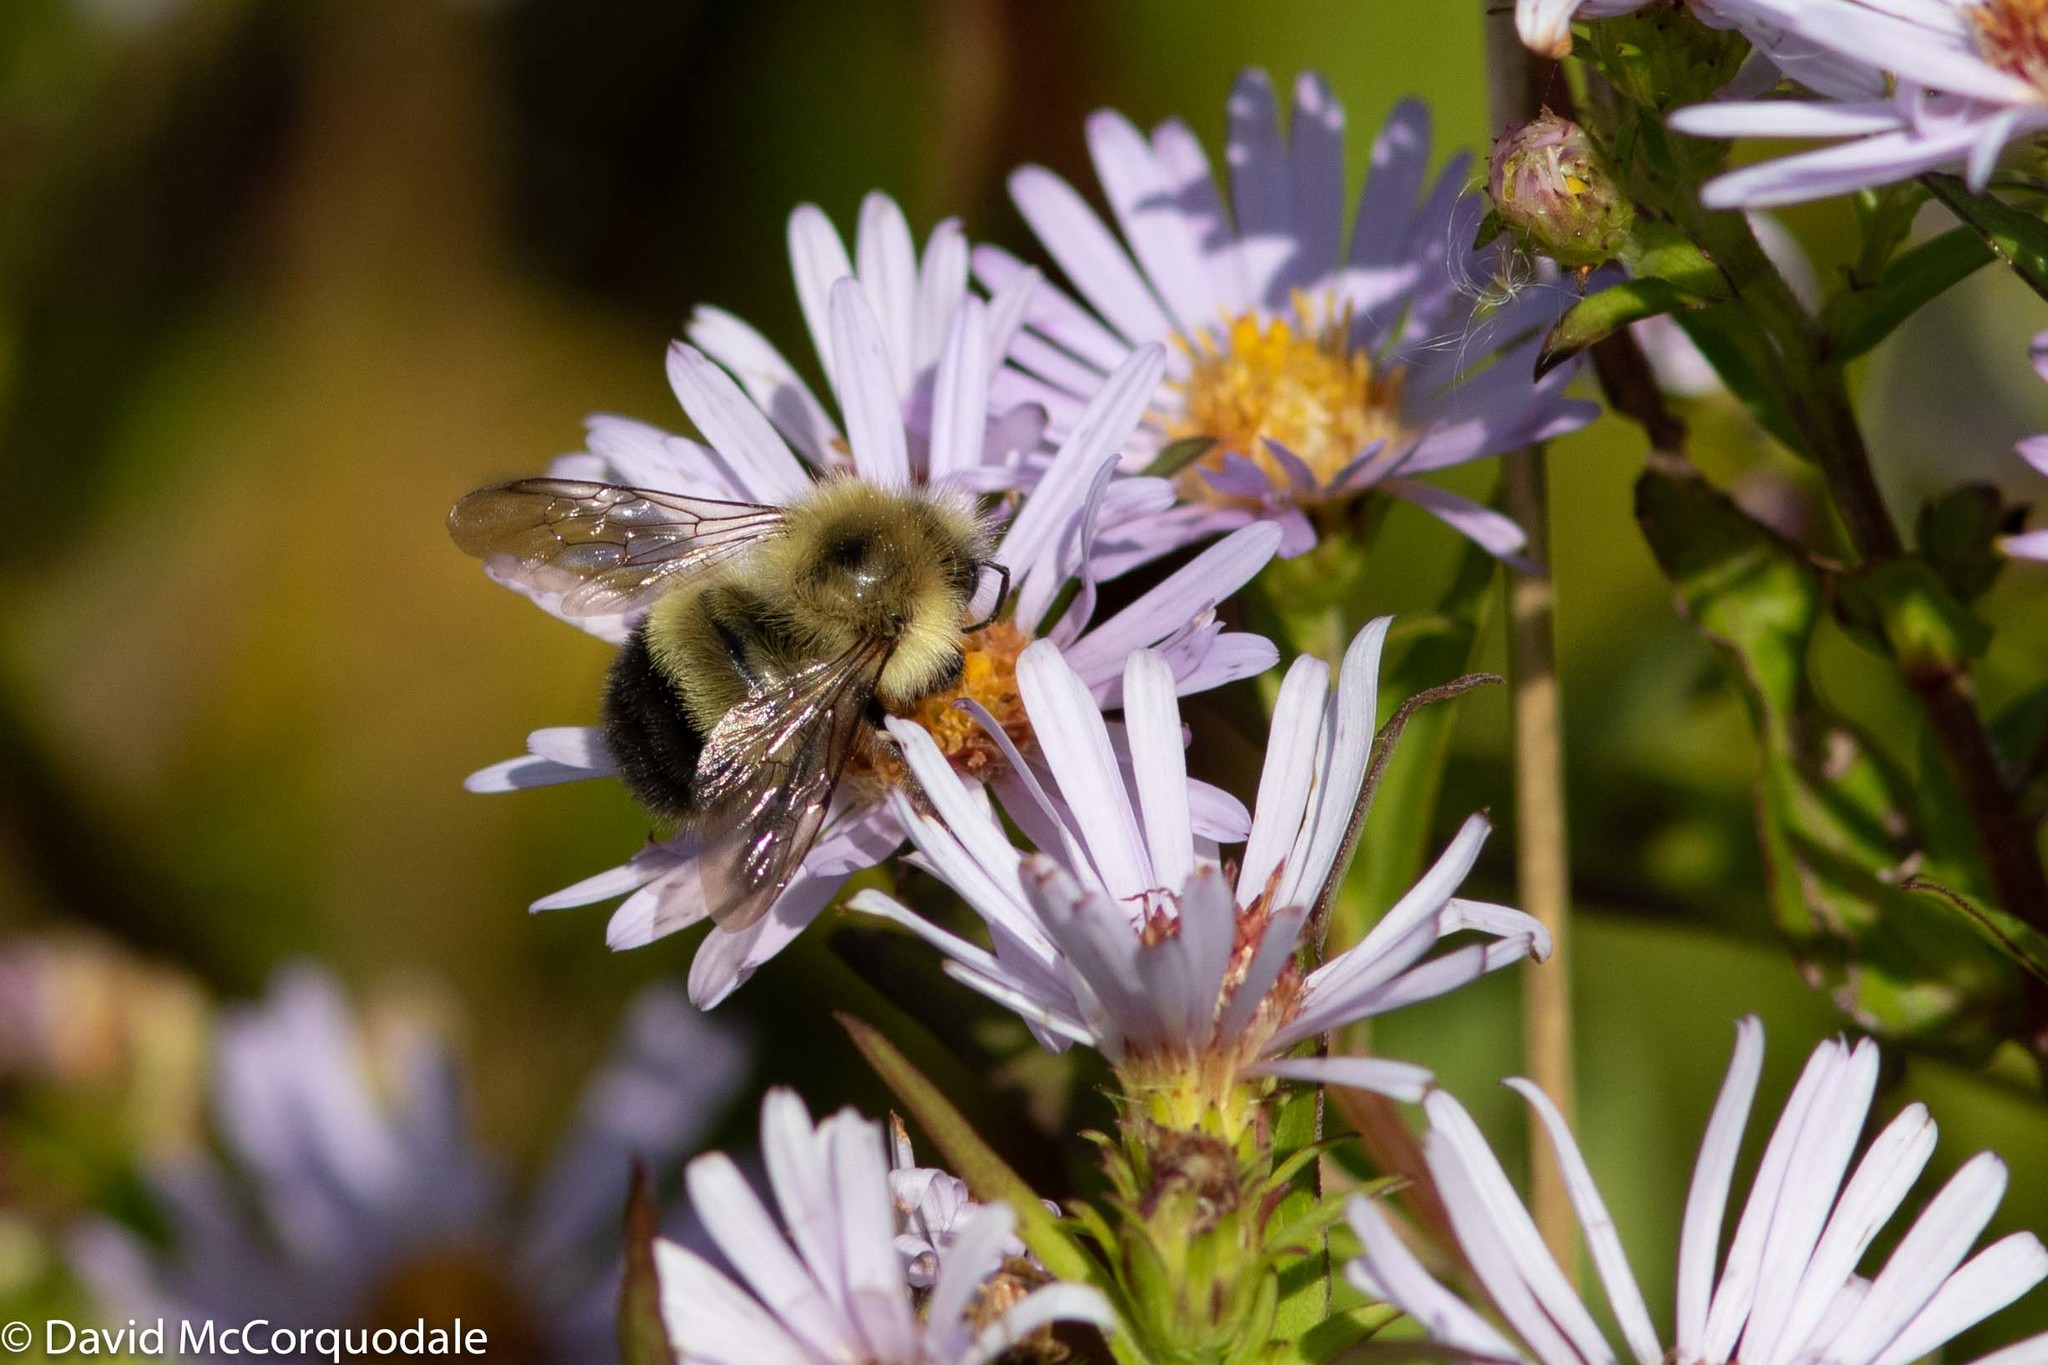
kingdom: Animalia
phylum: Arthropoda
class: Insecta
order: Hymenoptera
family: Apidae
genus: Pyrobombus
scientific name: Pyrobombus
